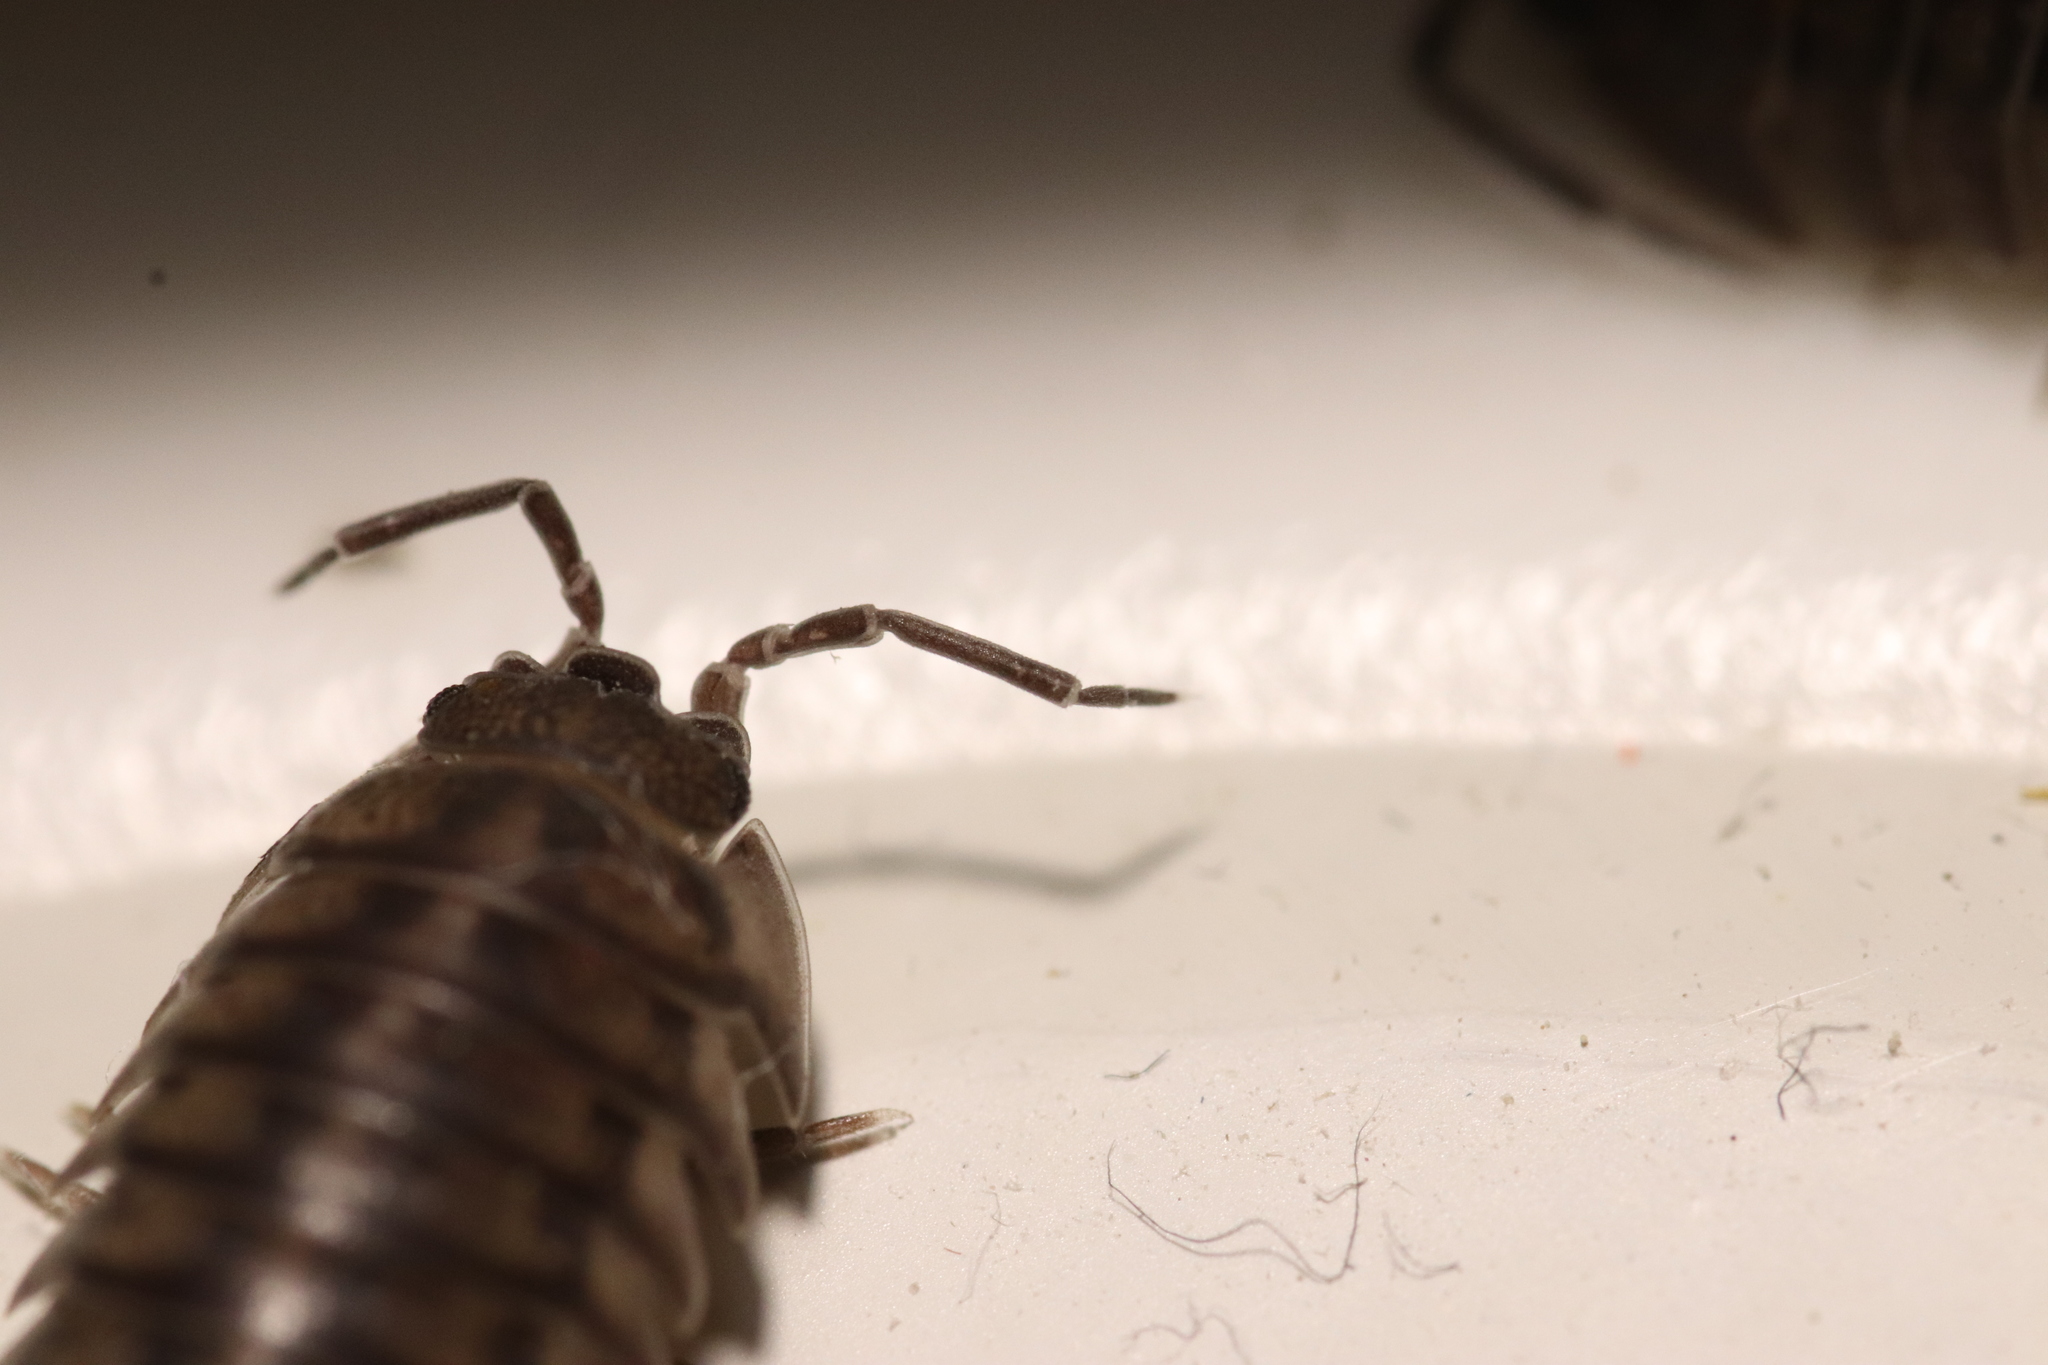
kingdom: Animalia
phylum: Arthropoda
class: Malacostraca
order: Isopoda
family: Armadillidiidae
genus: Armadillidium
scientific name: Armadillidium nasatum
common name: Isopod
